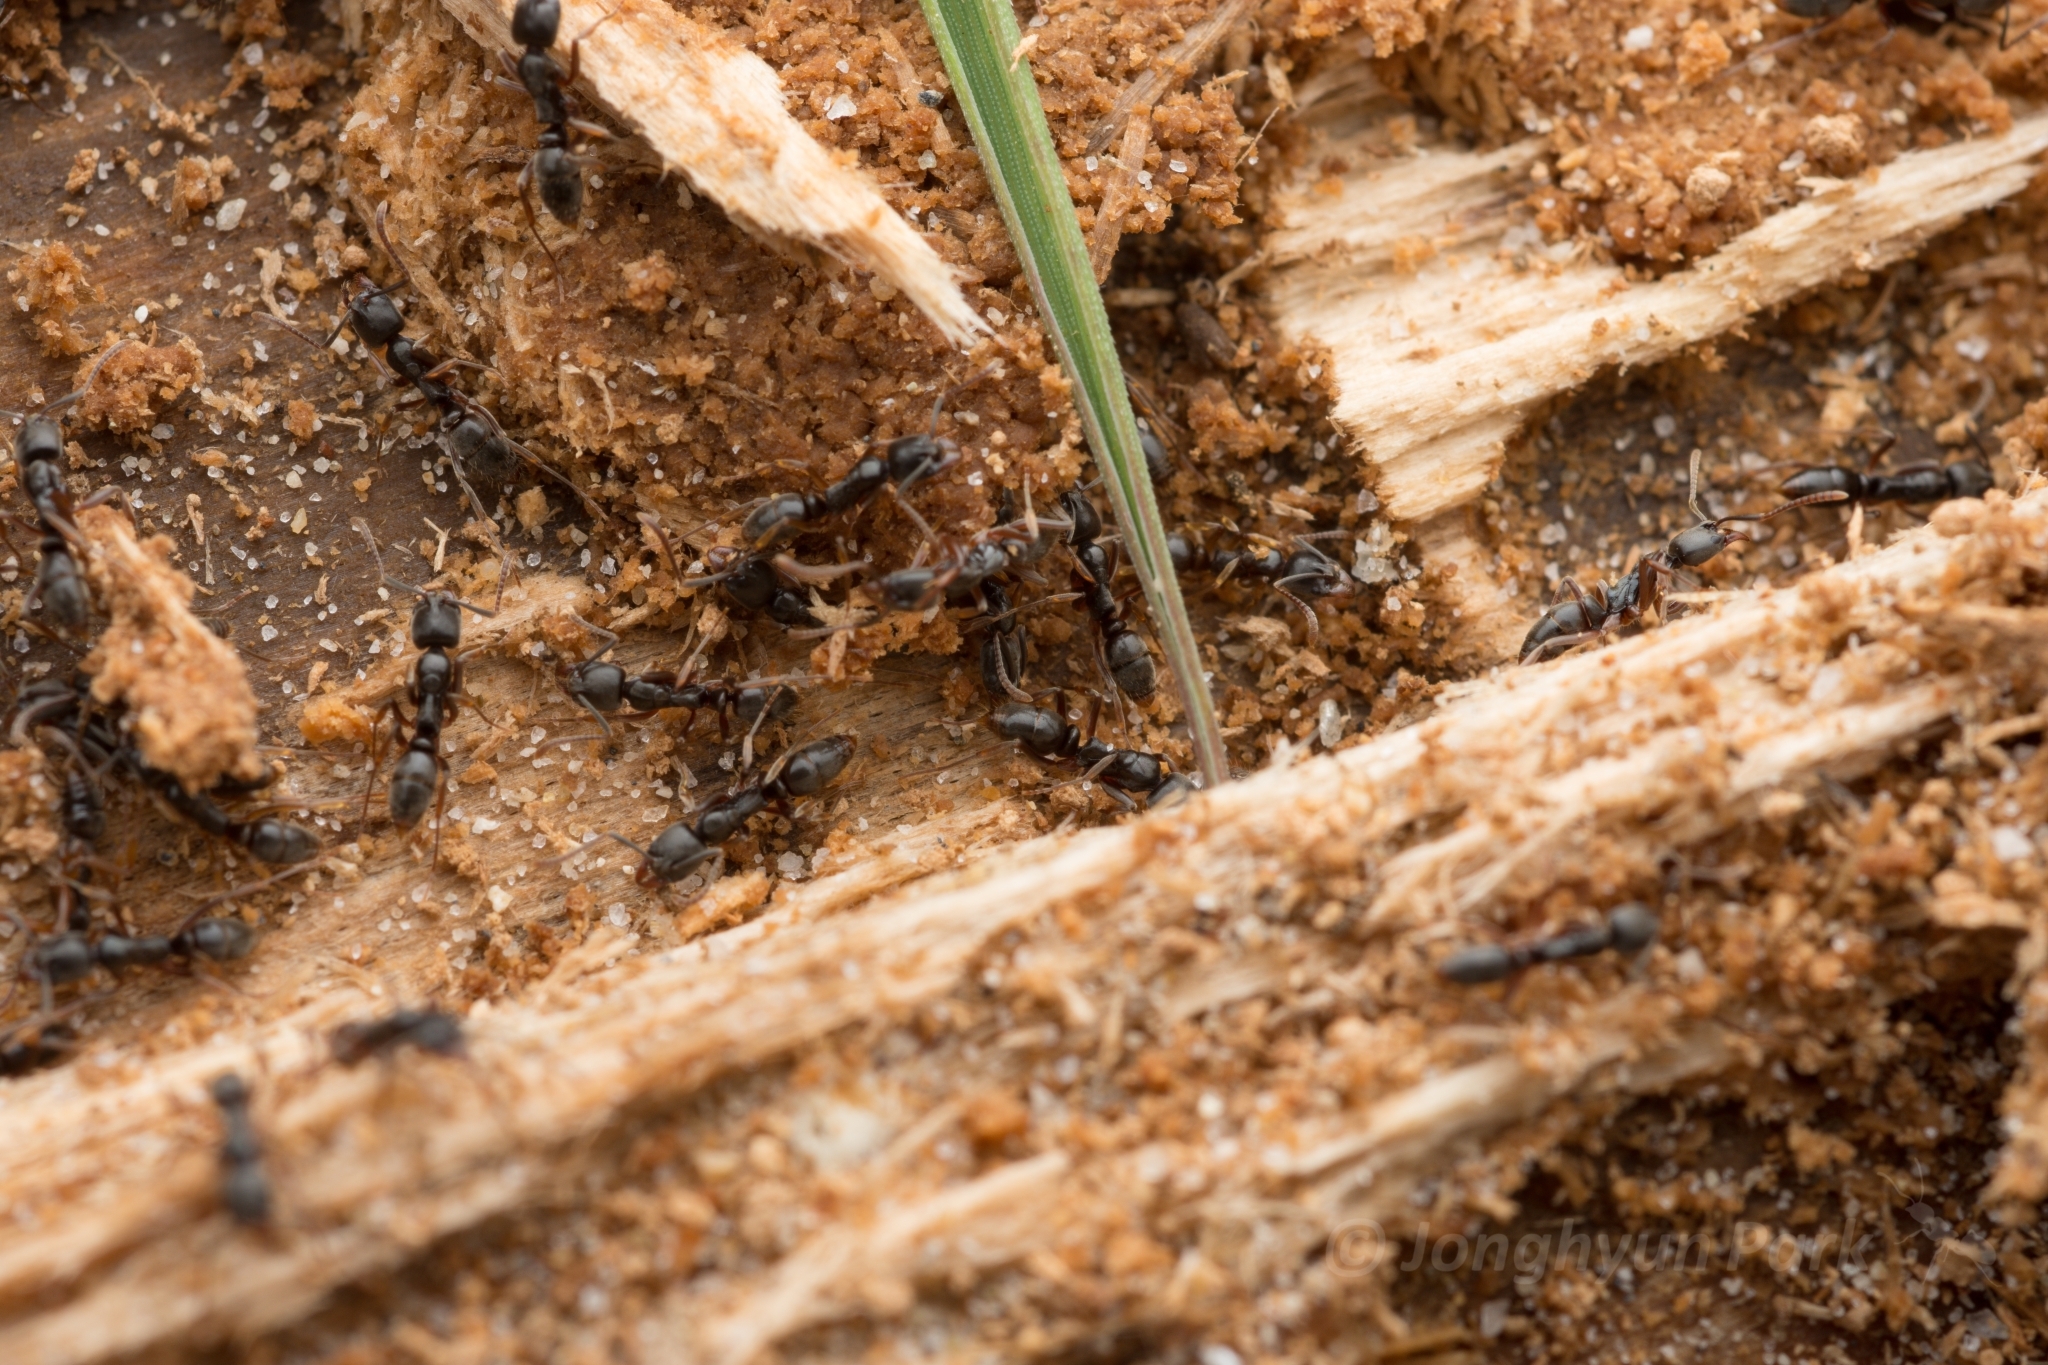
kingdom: Animalia
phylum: Arthropoda
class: Insecta
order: Hymenoptera
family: Formicidae
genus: Pachycondyla
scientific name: Pachycondyla chinensis
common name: Asian needle ant
